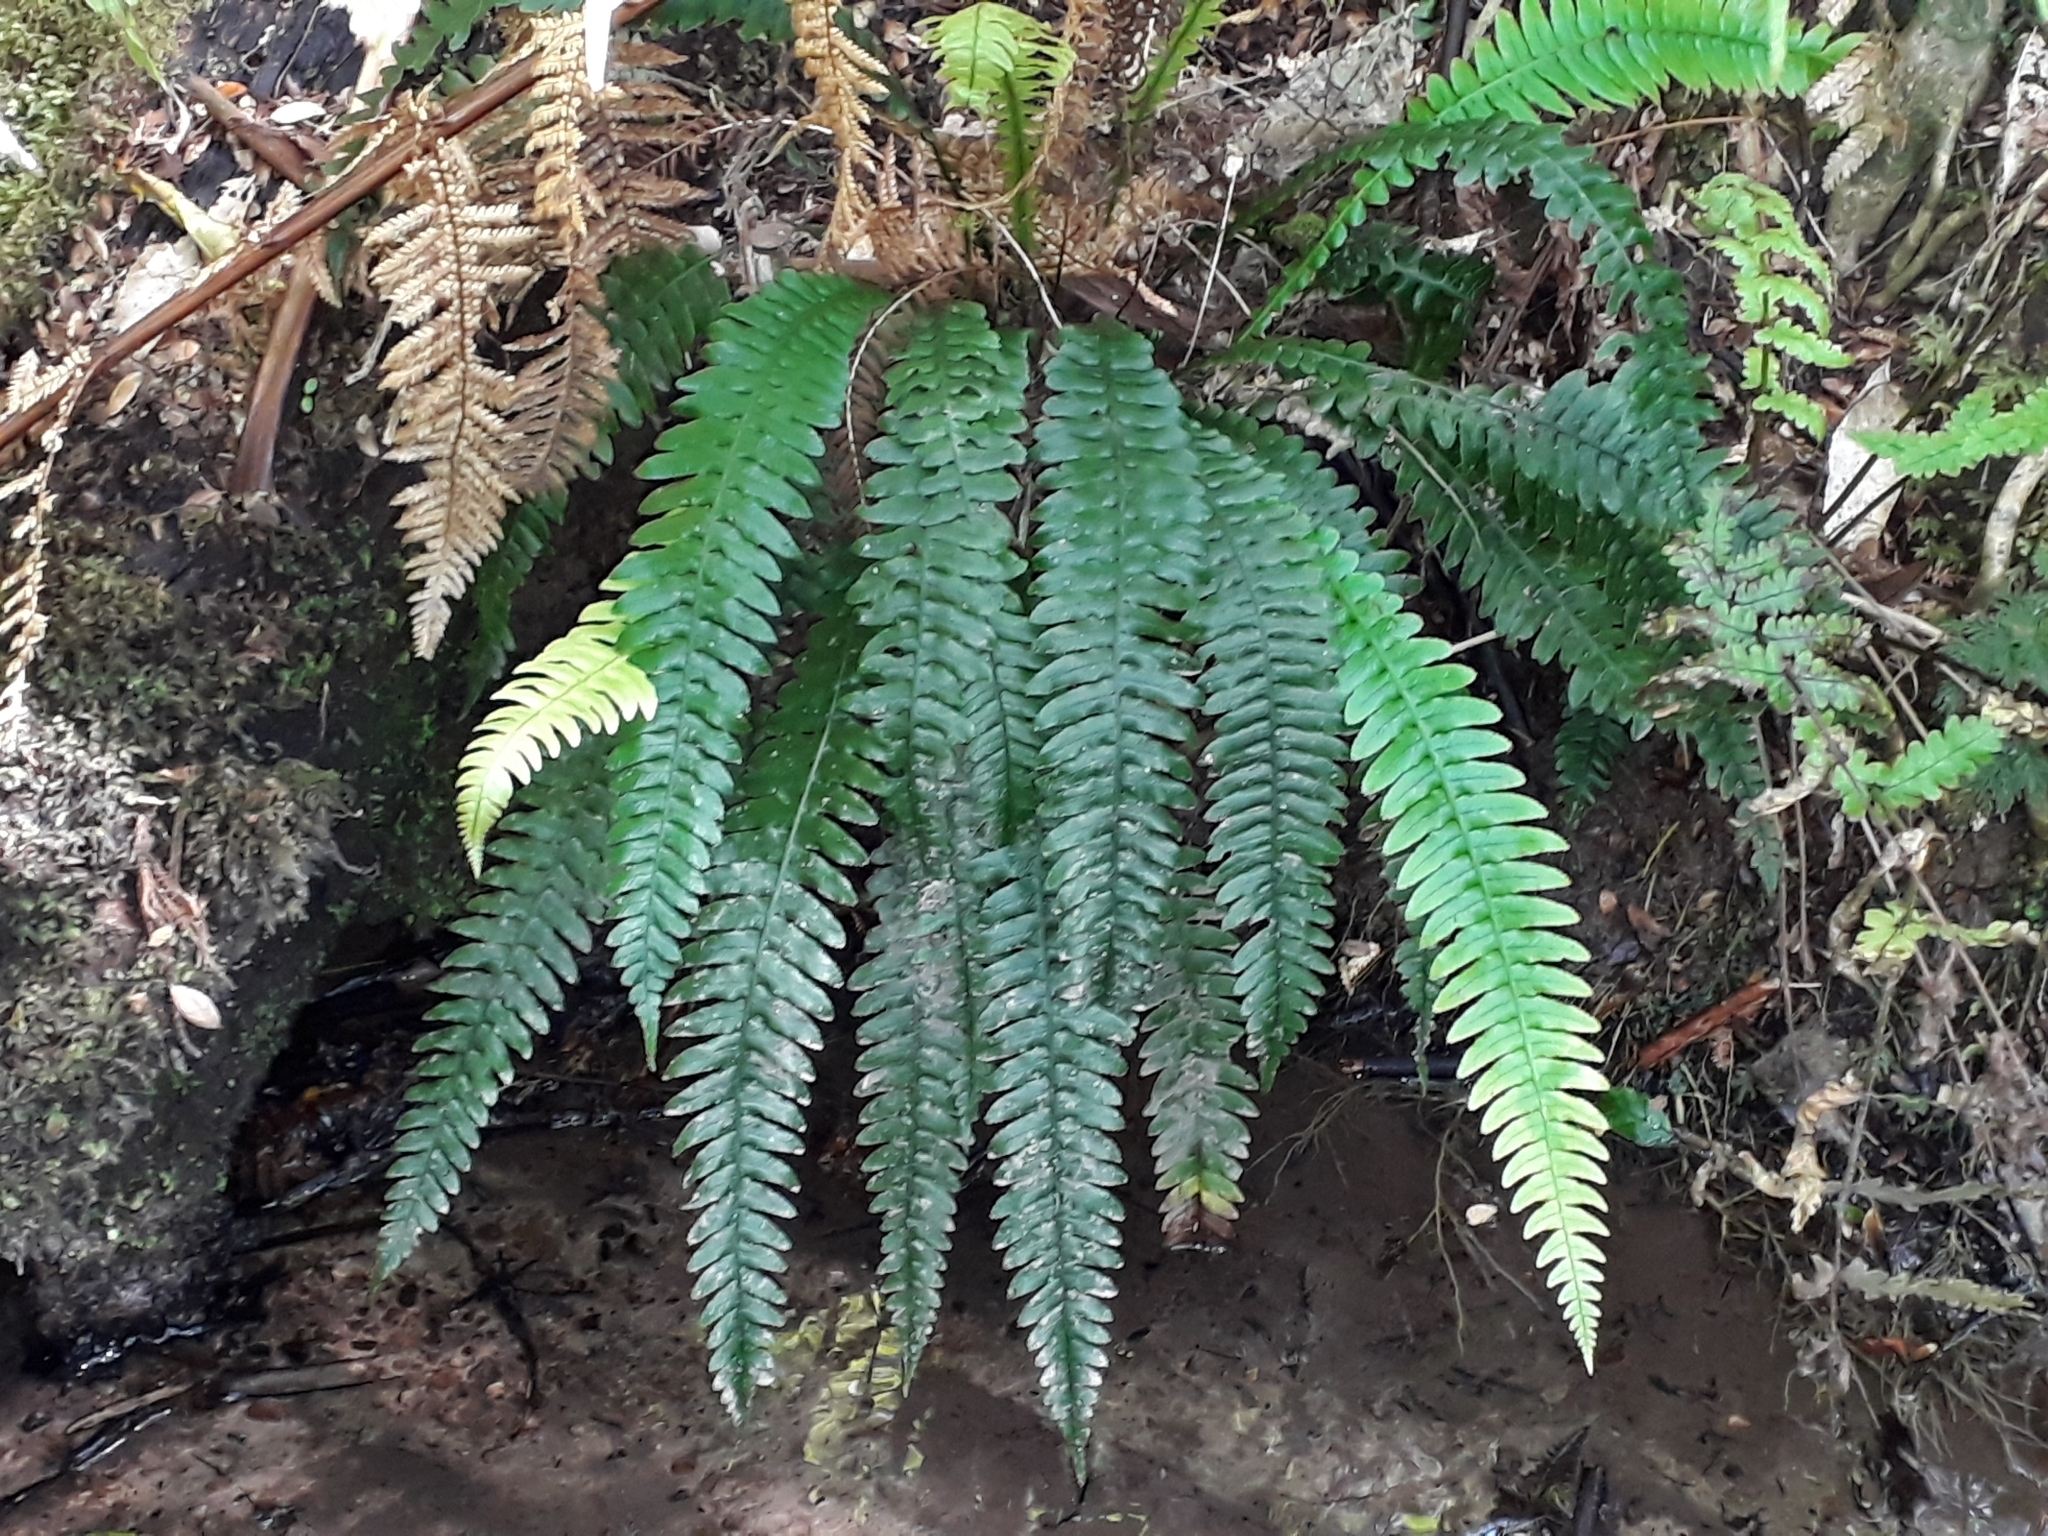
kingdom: Plantae
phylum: Tracheophyta
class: Polypodiopsida
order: Polypodiales
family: Blechnaceae
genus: Austroblechnum
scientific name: Austroblechnum lanceolatum
